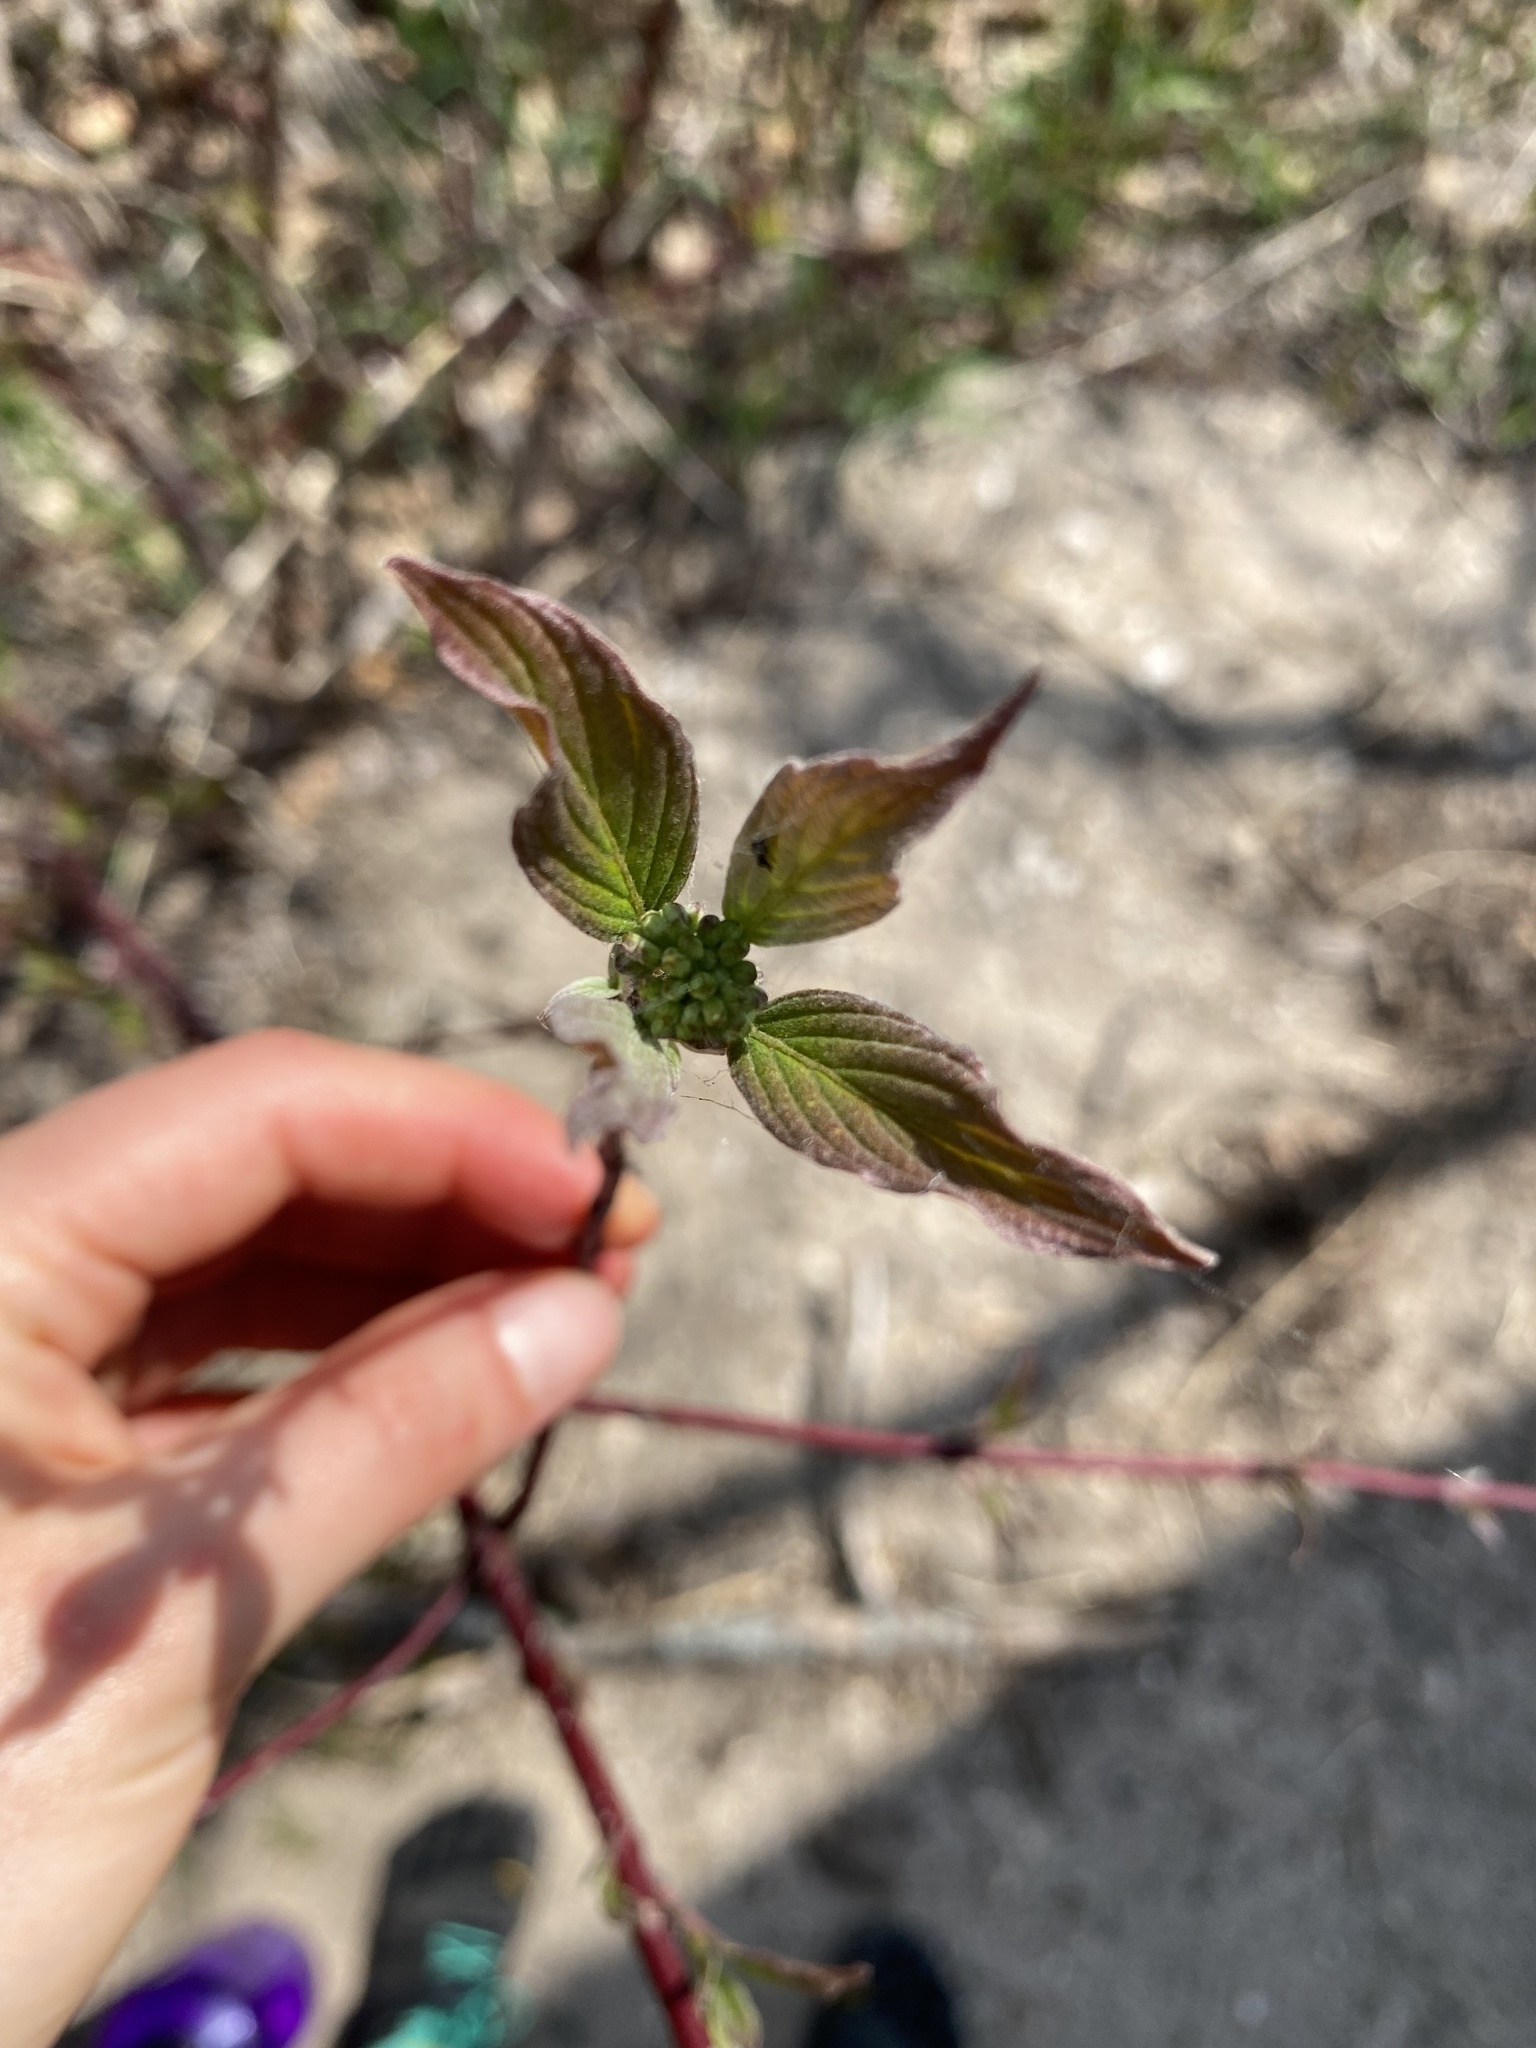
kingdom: Plantae
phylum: Tracheophyta
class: Magnoliopsida
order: Cornales
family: Cornaceae
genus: Cornus
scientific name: Cornus sericea
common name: Red-osier dogwood
